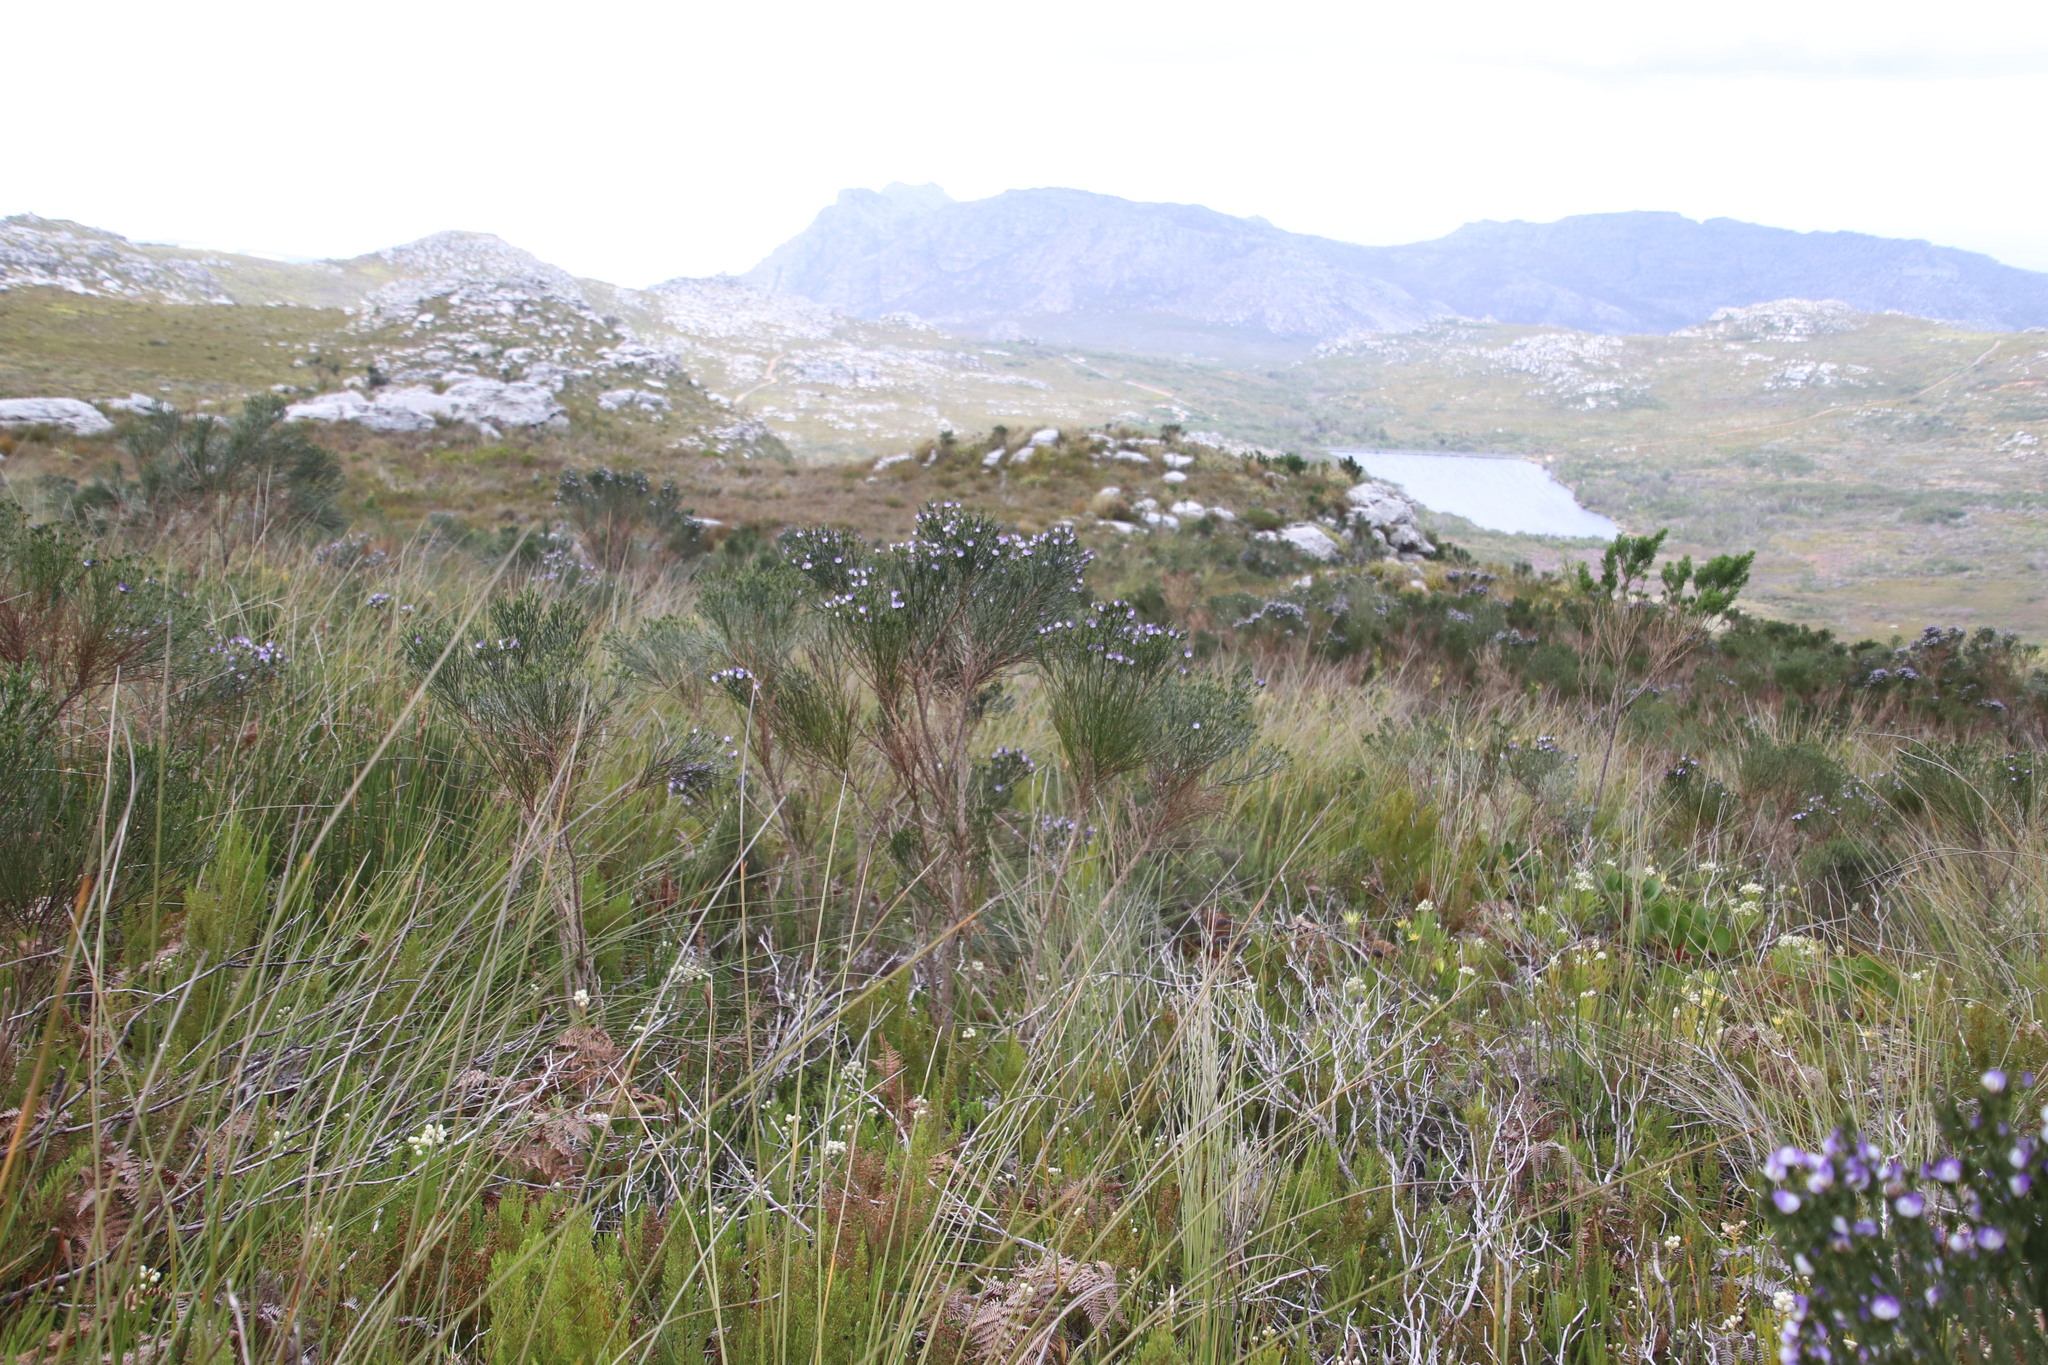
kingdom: Plantae
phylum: Tracheophyta
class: Magnoliopsida
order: Fabales
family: Fabaceae
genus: Psoralea
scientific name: Psoralea congesta
